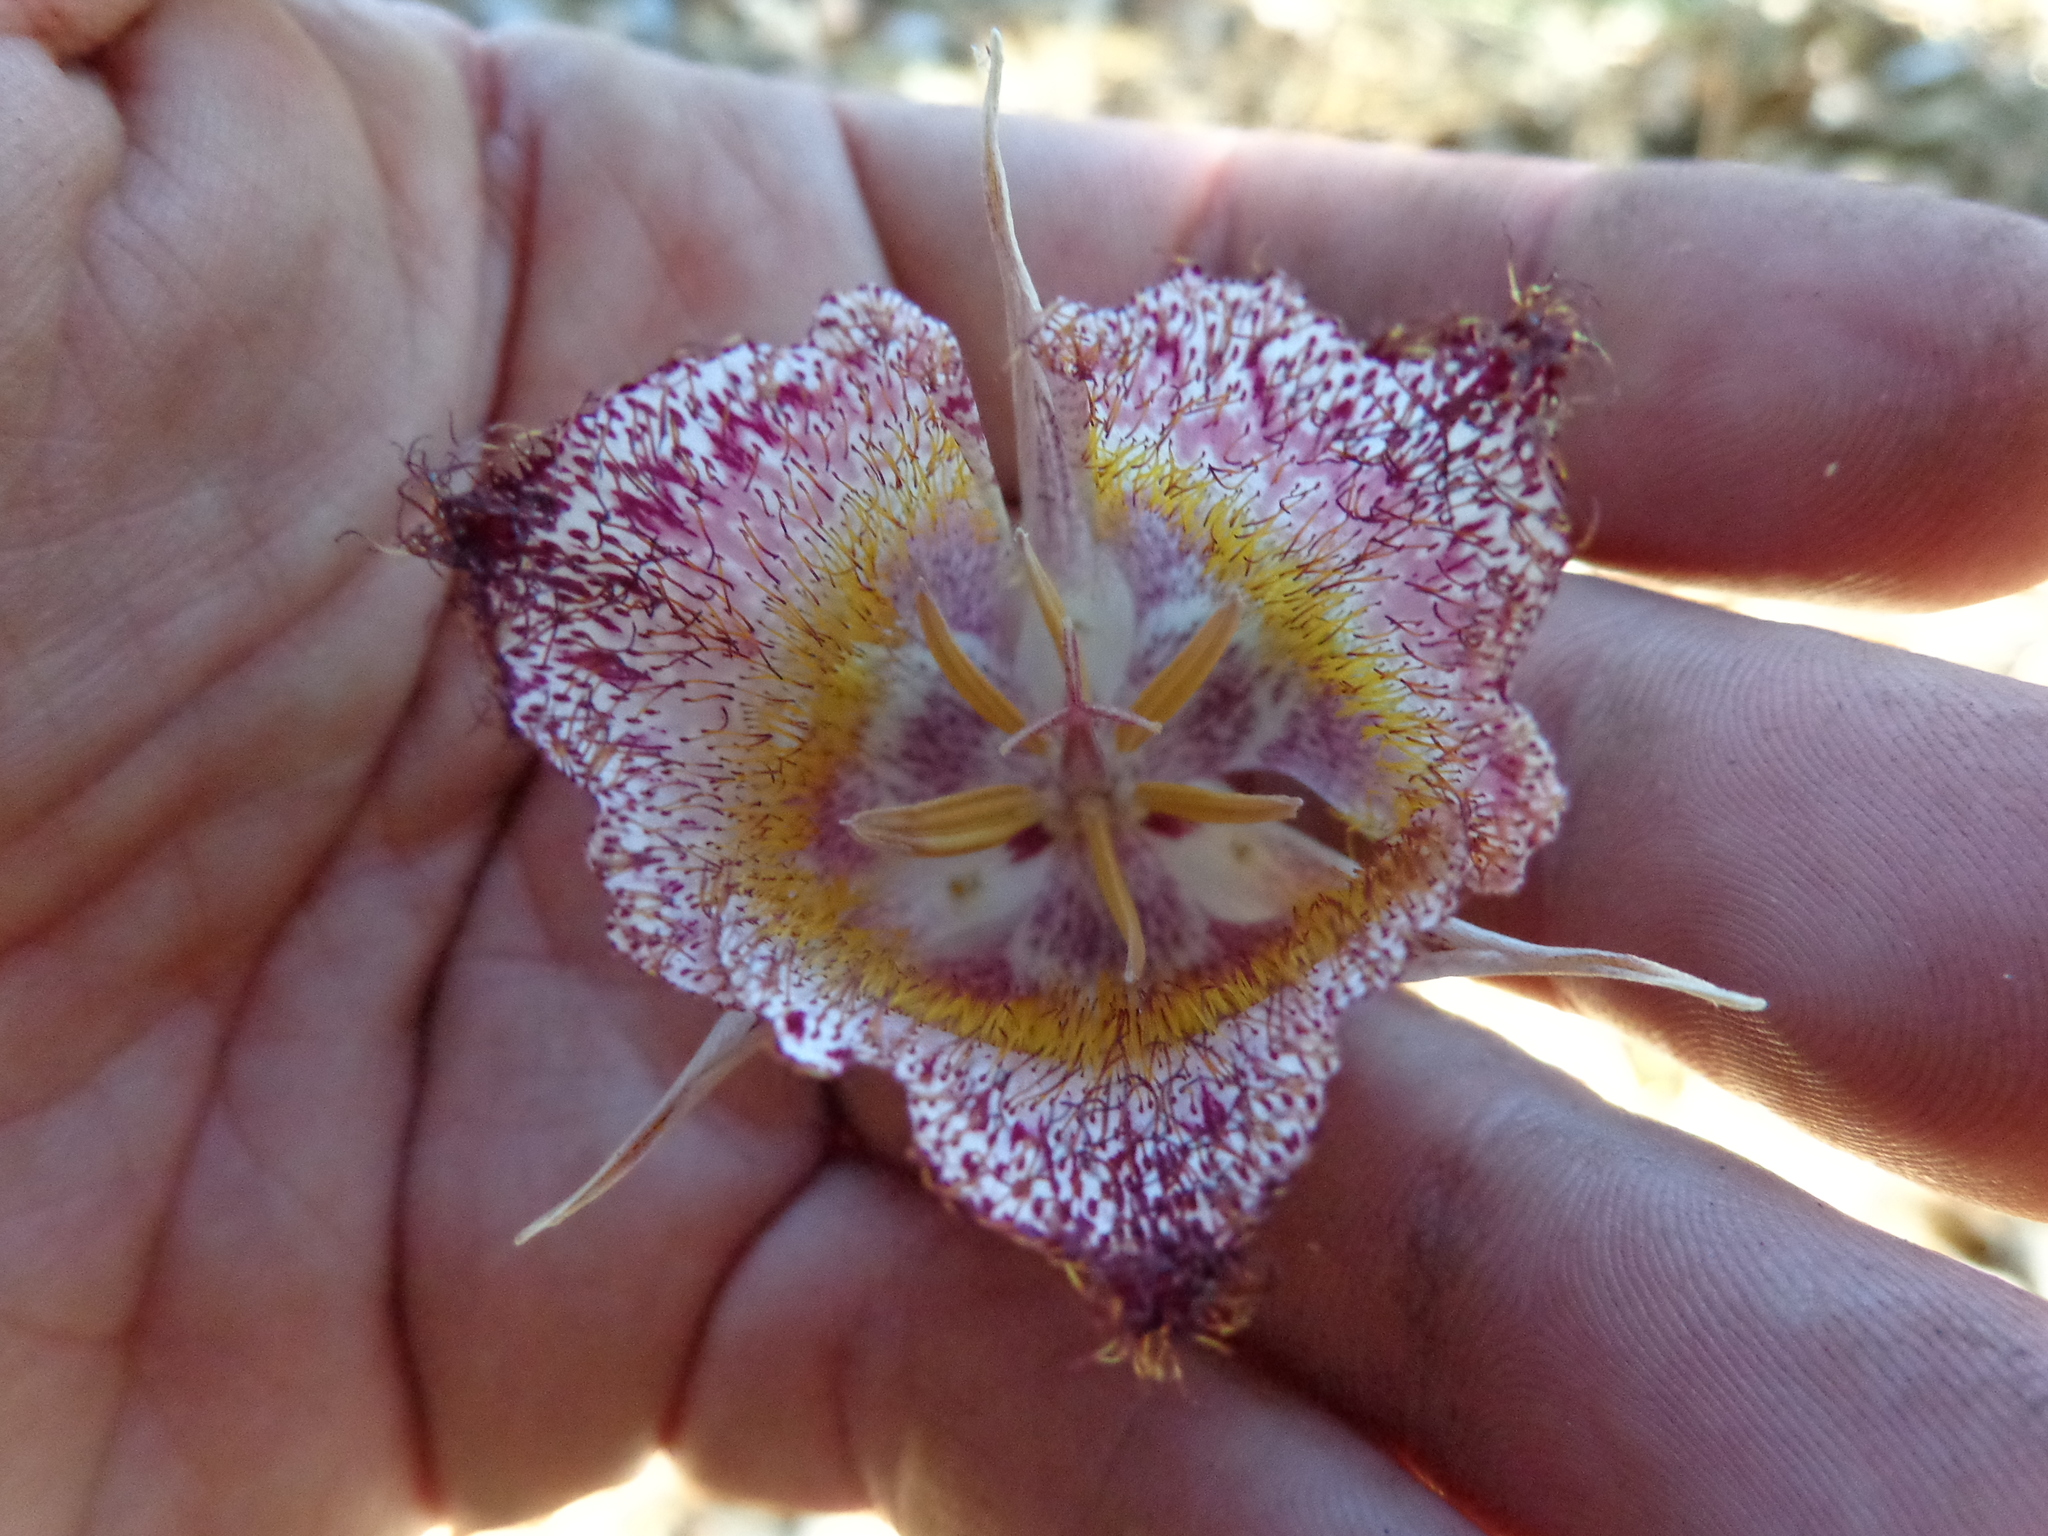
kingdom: Plantae
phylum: Tracheophyta
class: Liliopsida
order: Liliales
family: Liliaceae
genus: Calochortus
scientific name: Calochortus fimbriatus
